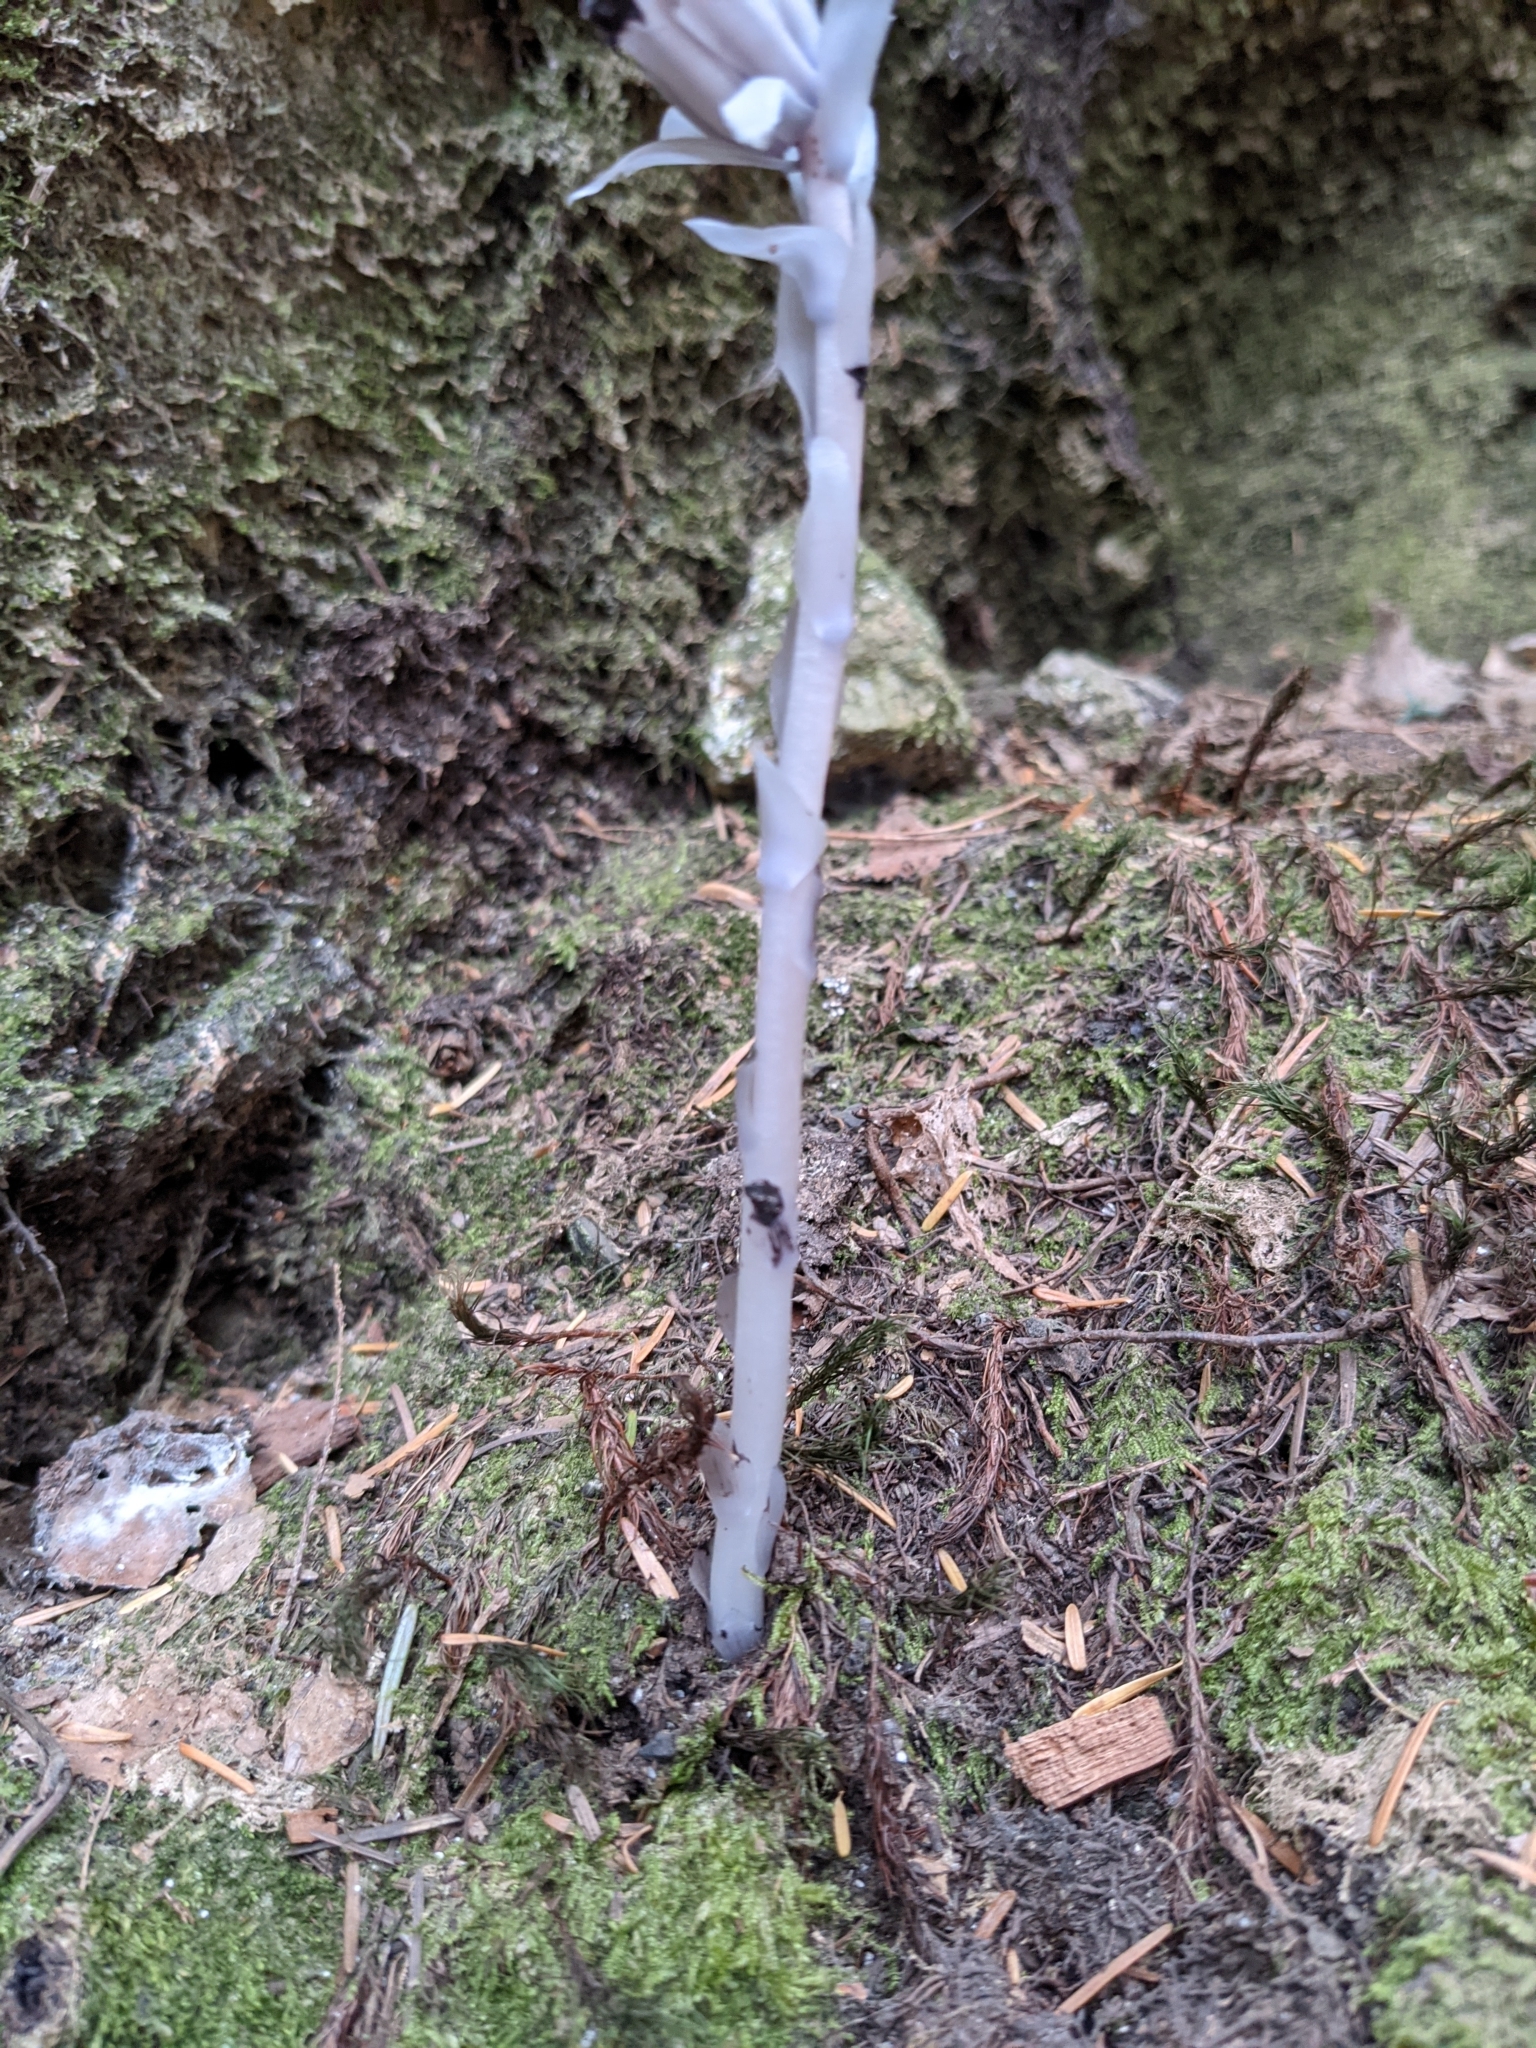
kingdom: Plantae
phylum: Tracheophyta
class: Magnoliopsida
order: Ericales
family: Ericaceae
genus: Monotropa
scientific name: Monotropa uniflora
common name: Convulsion root
